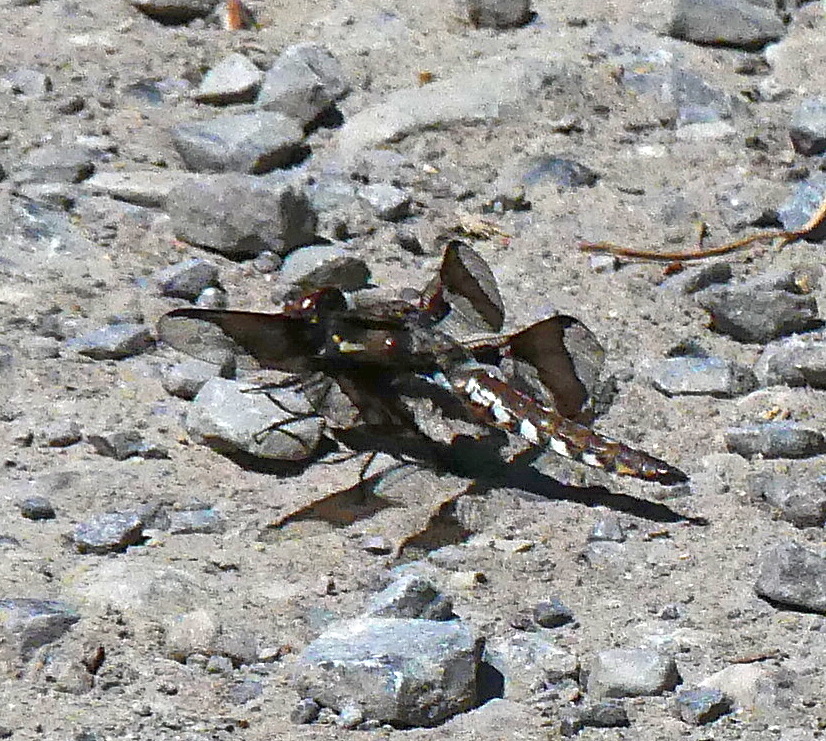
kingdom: Animalia
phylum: Arthropoda
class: Insecta
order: Odonata
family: Libellulidae
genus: Plathemis
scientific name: Plathemis lydia
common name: Common whitetail
